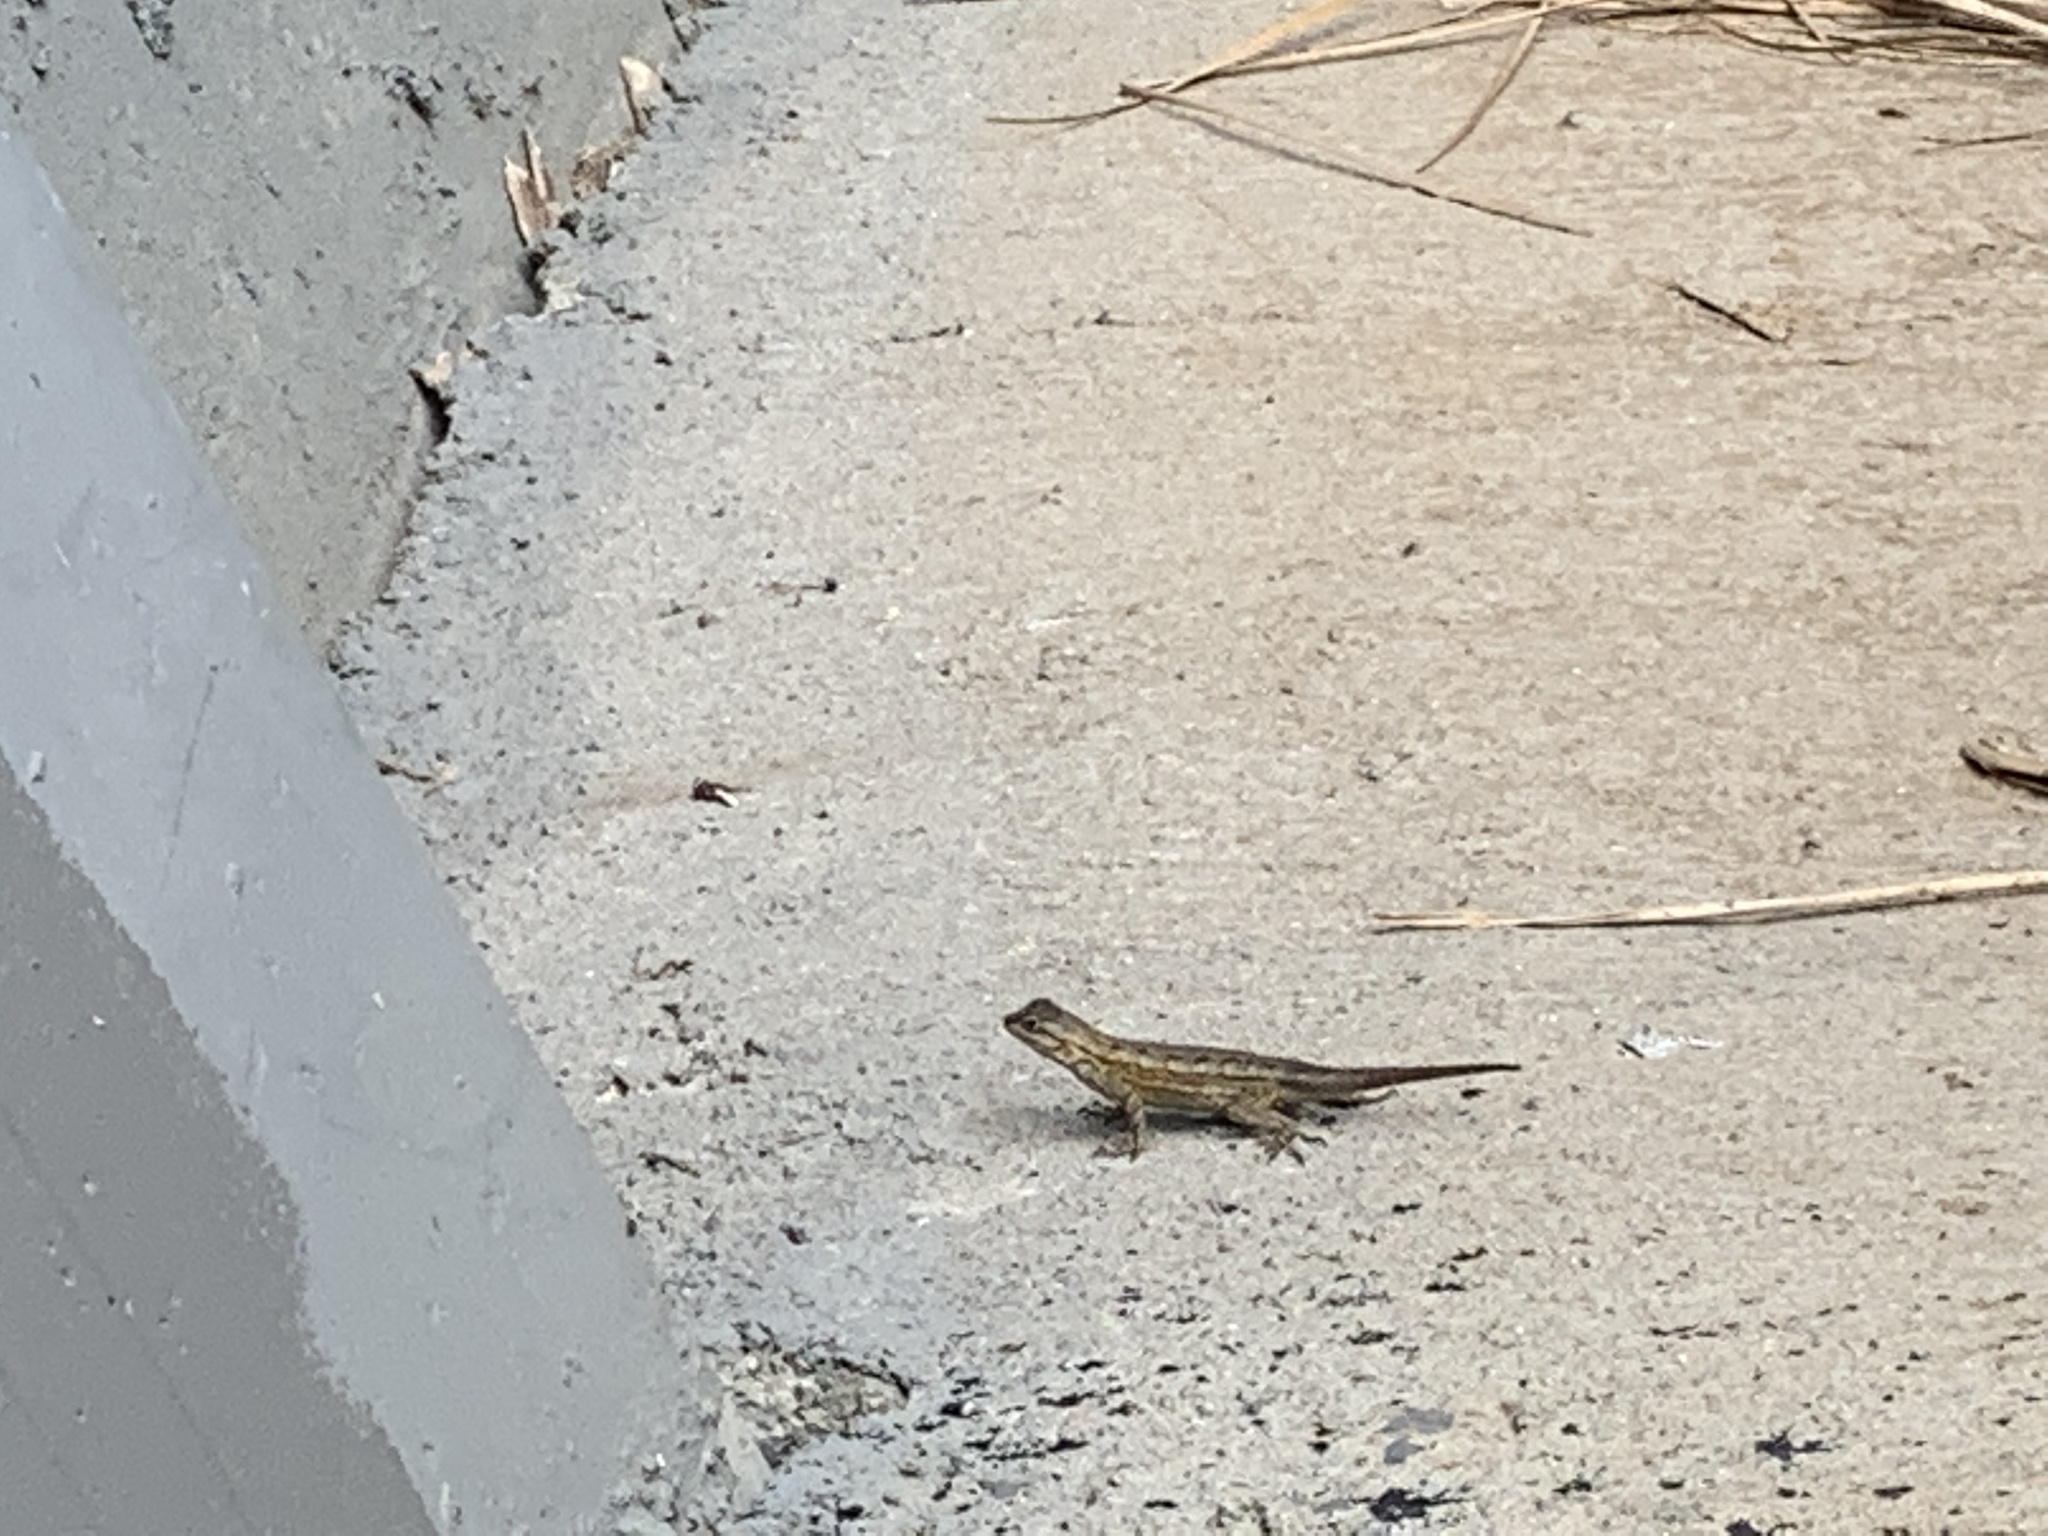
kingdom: Animalia
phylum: Chordata
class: Squamata
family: Phrynosomatidae
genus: Sceloporus
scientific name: Sceloporus occidentalis
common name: Western fence lizard
